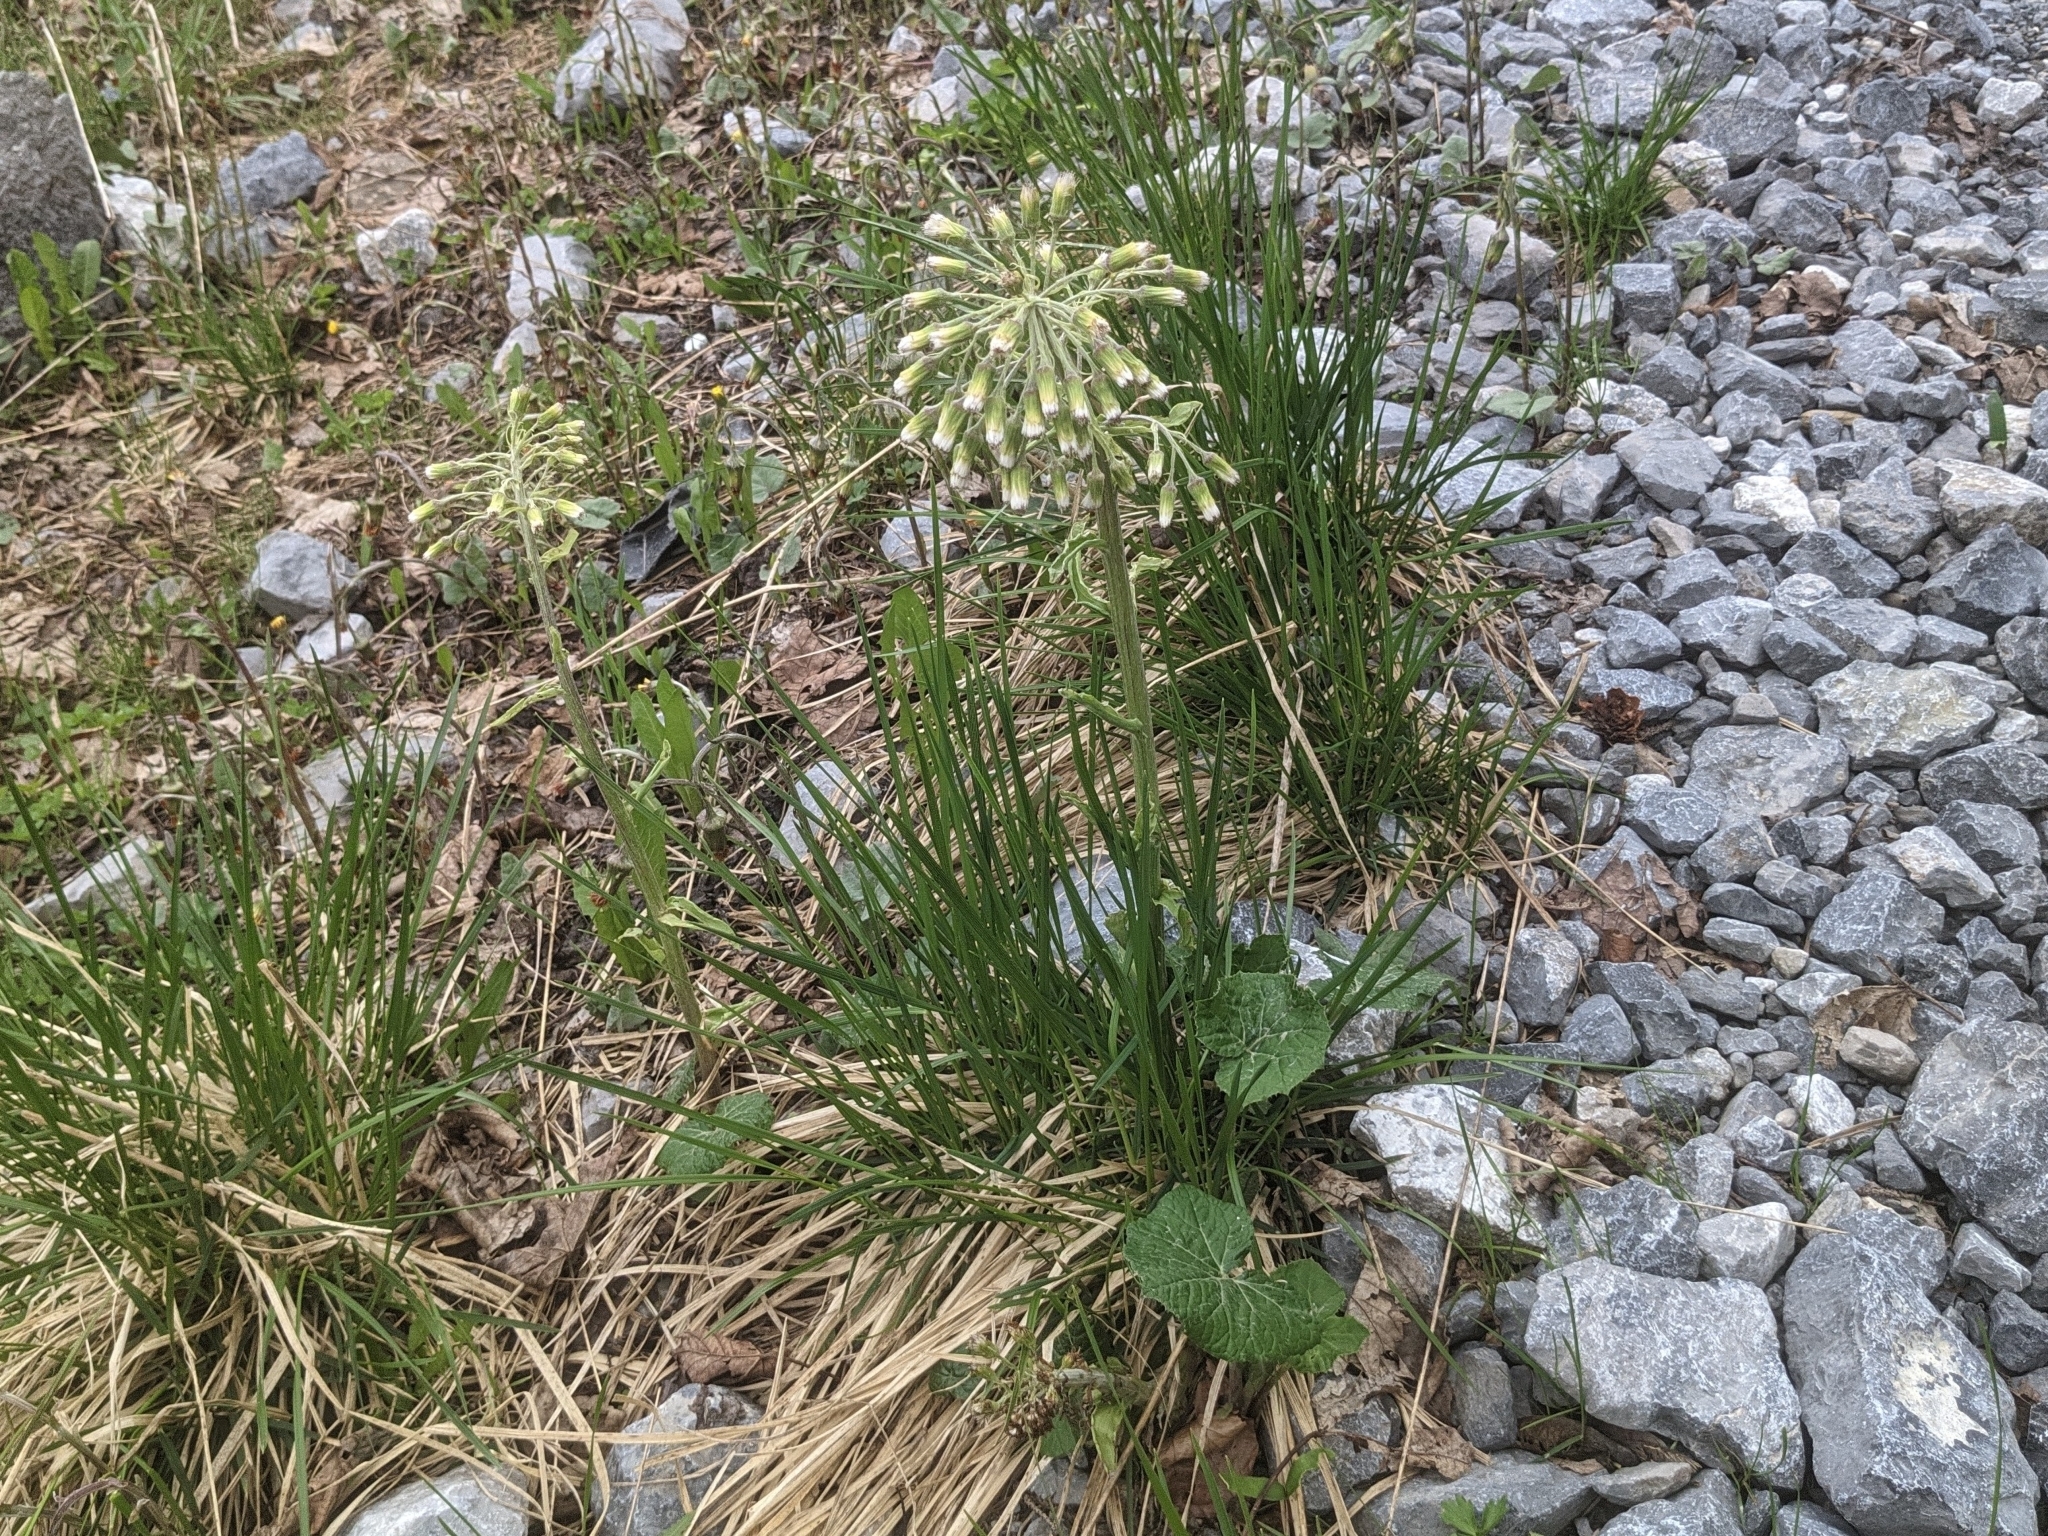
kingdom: Plantae
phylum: Tracheophyta
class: Magnoliopsida
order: Asterales
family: Asteraceae
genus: Petasites
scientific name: Petasites albus
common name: White butterbur
